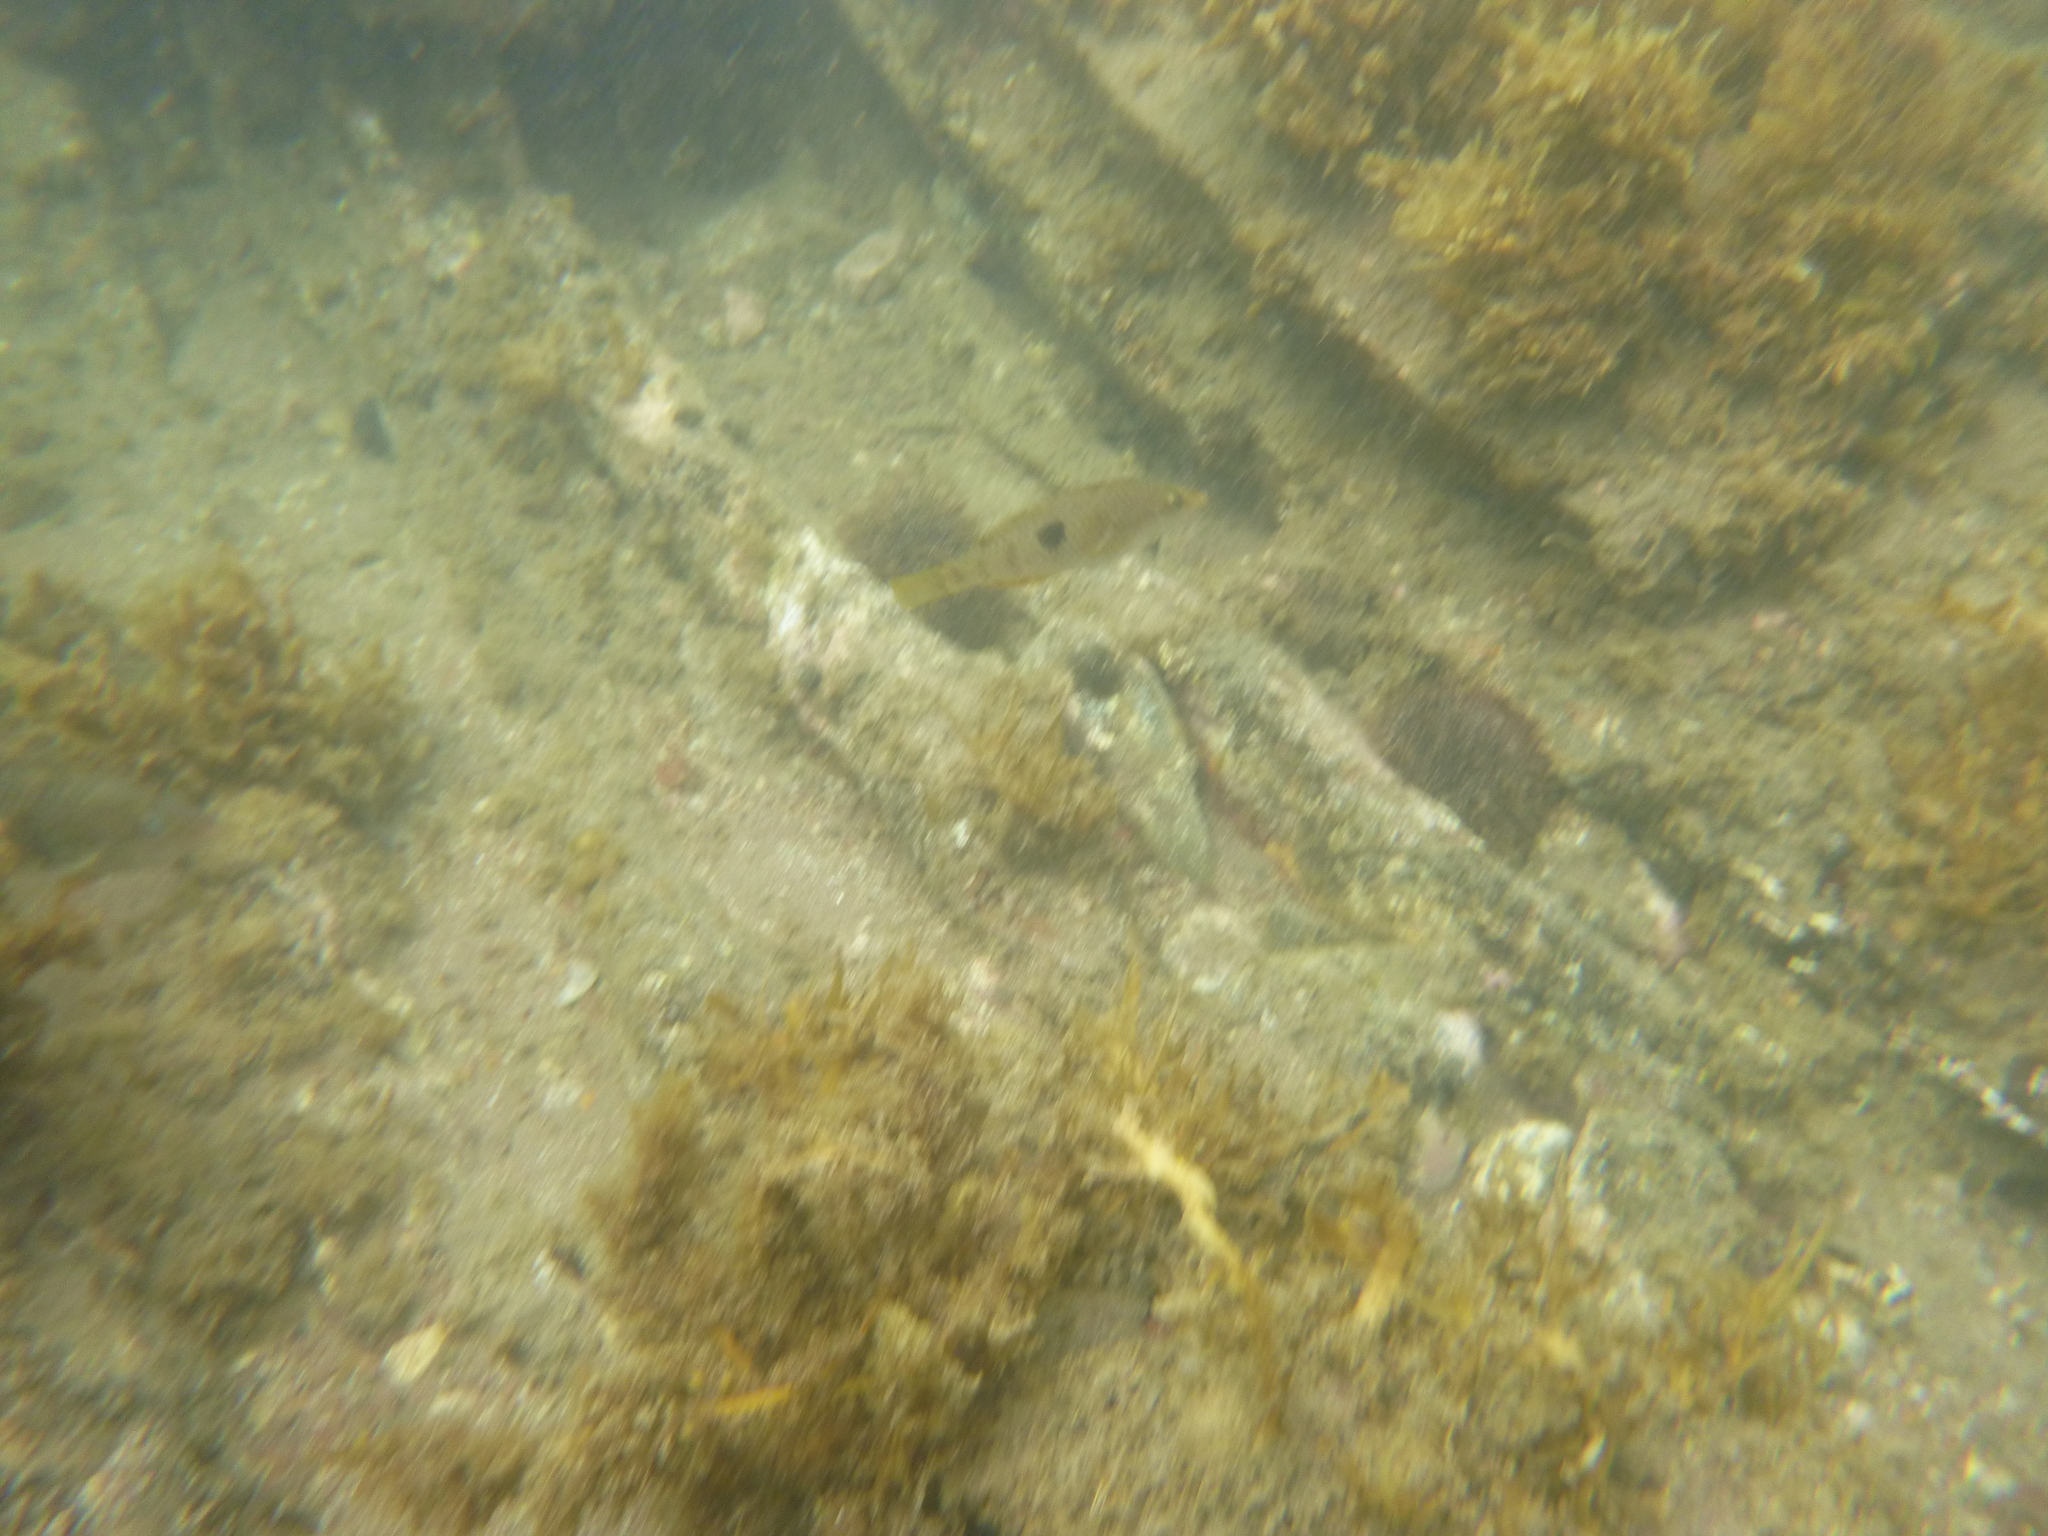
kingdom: Animalia
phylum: Chordata
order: Perciformes
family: Labridae
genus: Notolabrus
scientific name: Notolabrus celidotus
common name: Spotty
